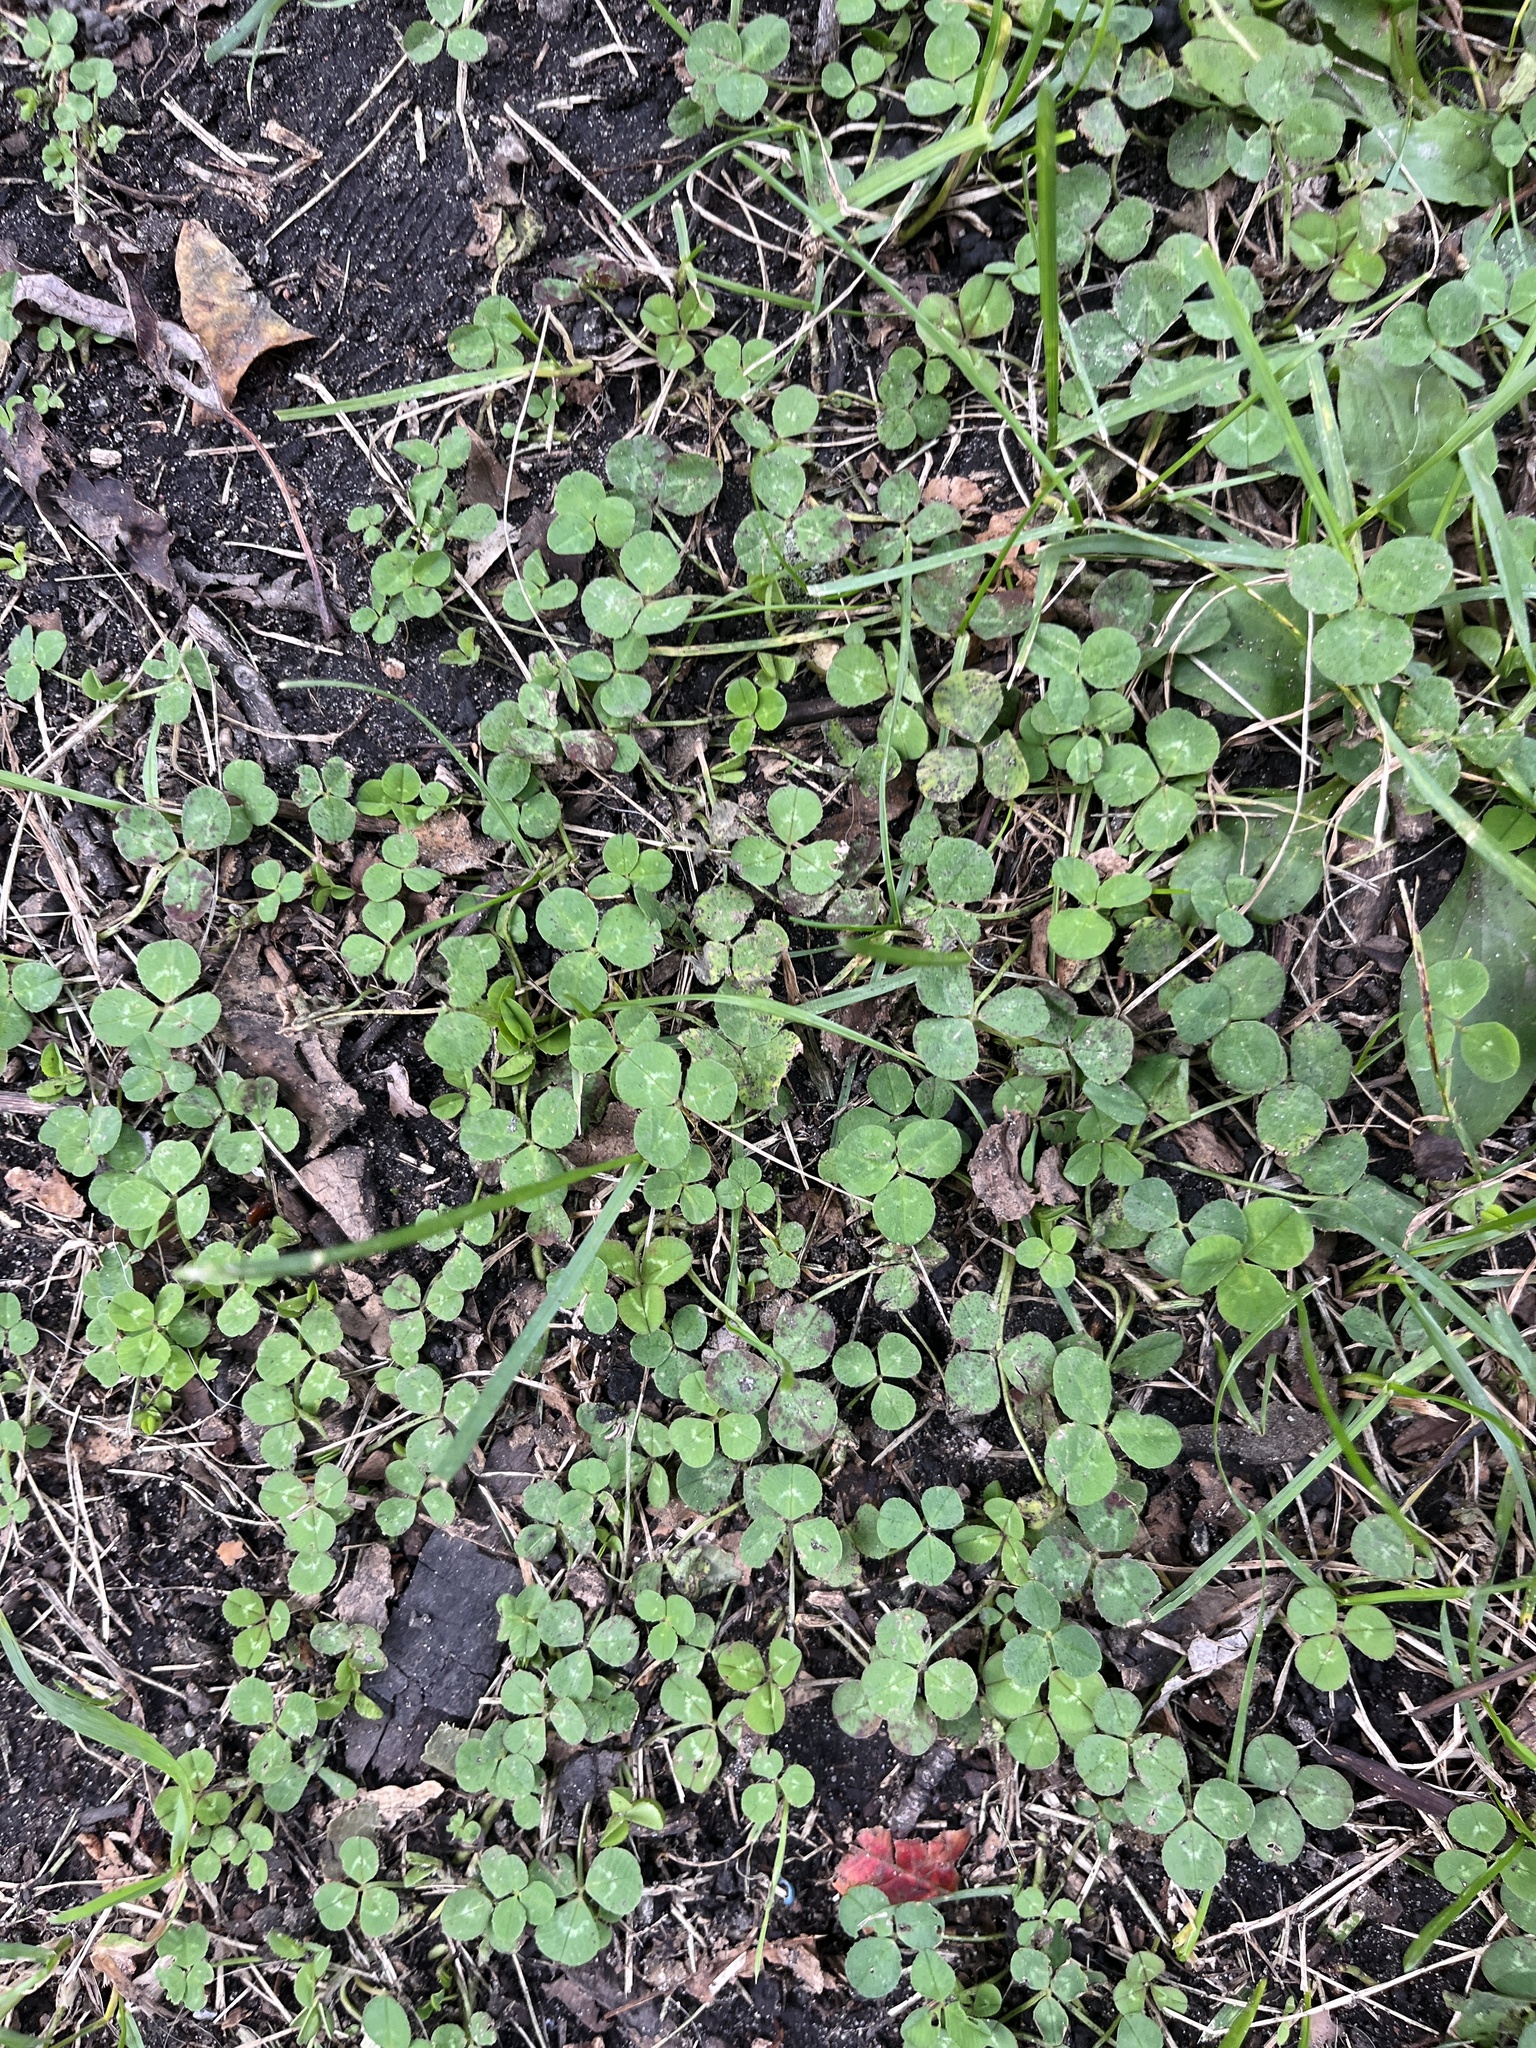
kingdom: Plantae
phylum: Tracheophyta
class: Magnoliopsida
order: Fabales
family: Fabaceae
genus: Trifolium
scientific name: Trifolium repens
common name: White clover
